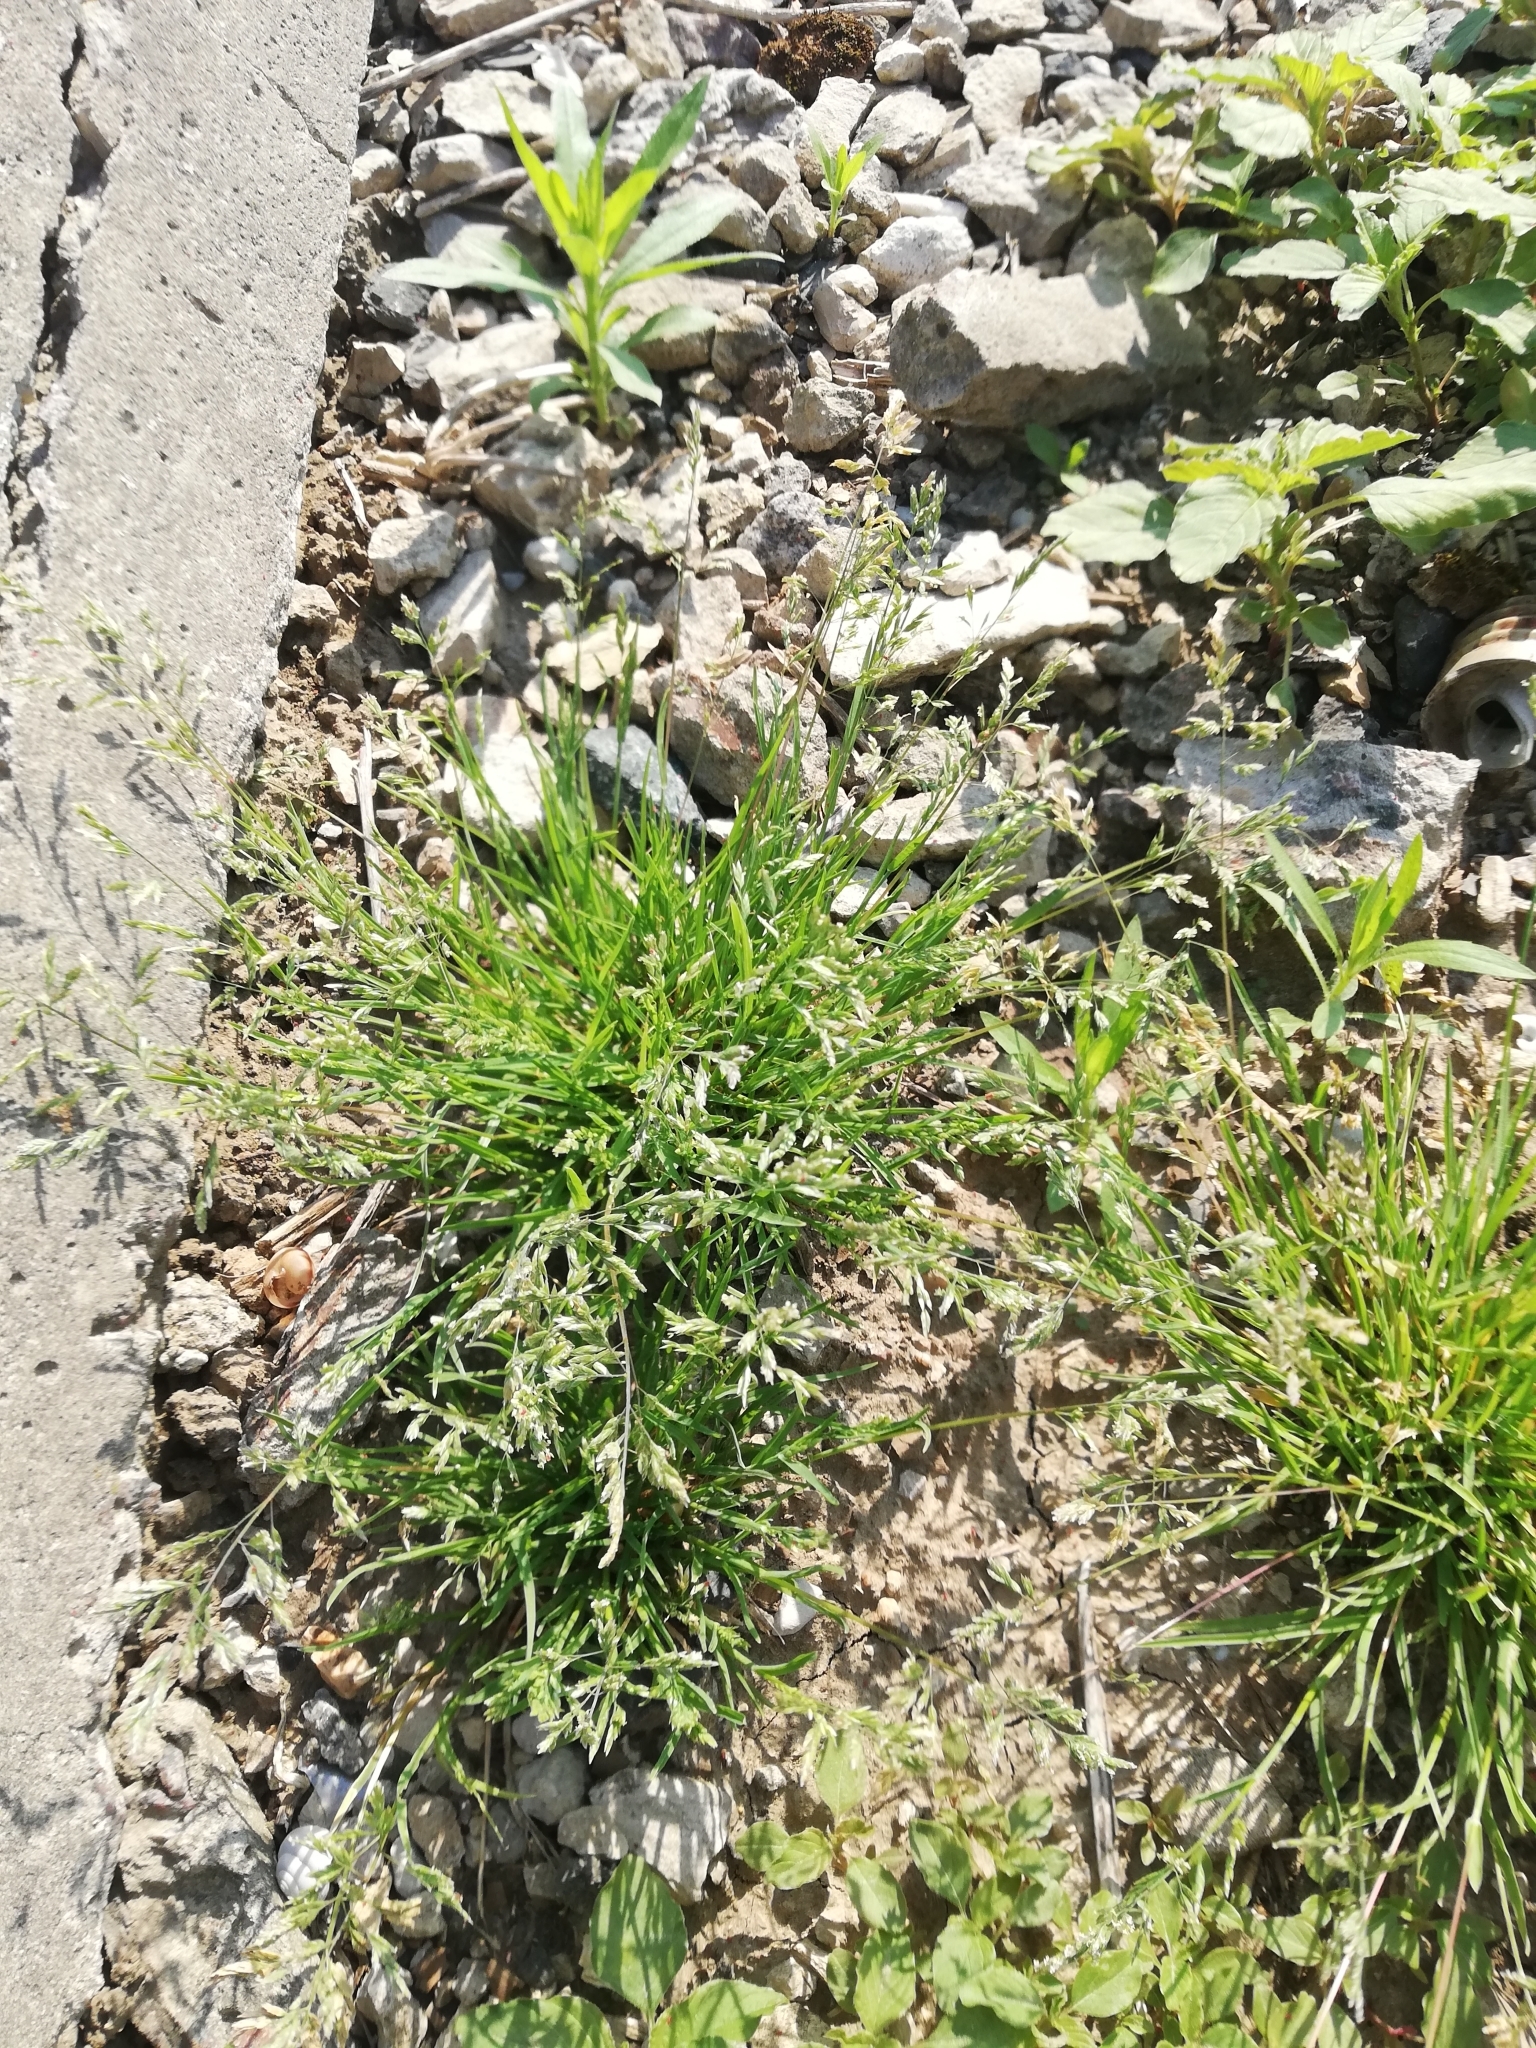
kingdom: Plantae
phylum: Tracheophyta
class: Liliopsida
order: Poales
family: Poaceae
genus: Poa
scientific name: Poa annua
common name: Annual bluegrass
